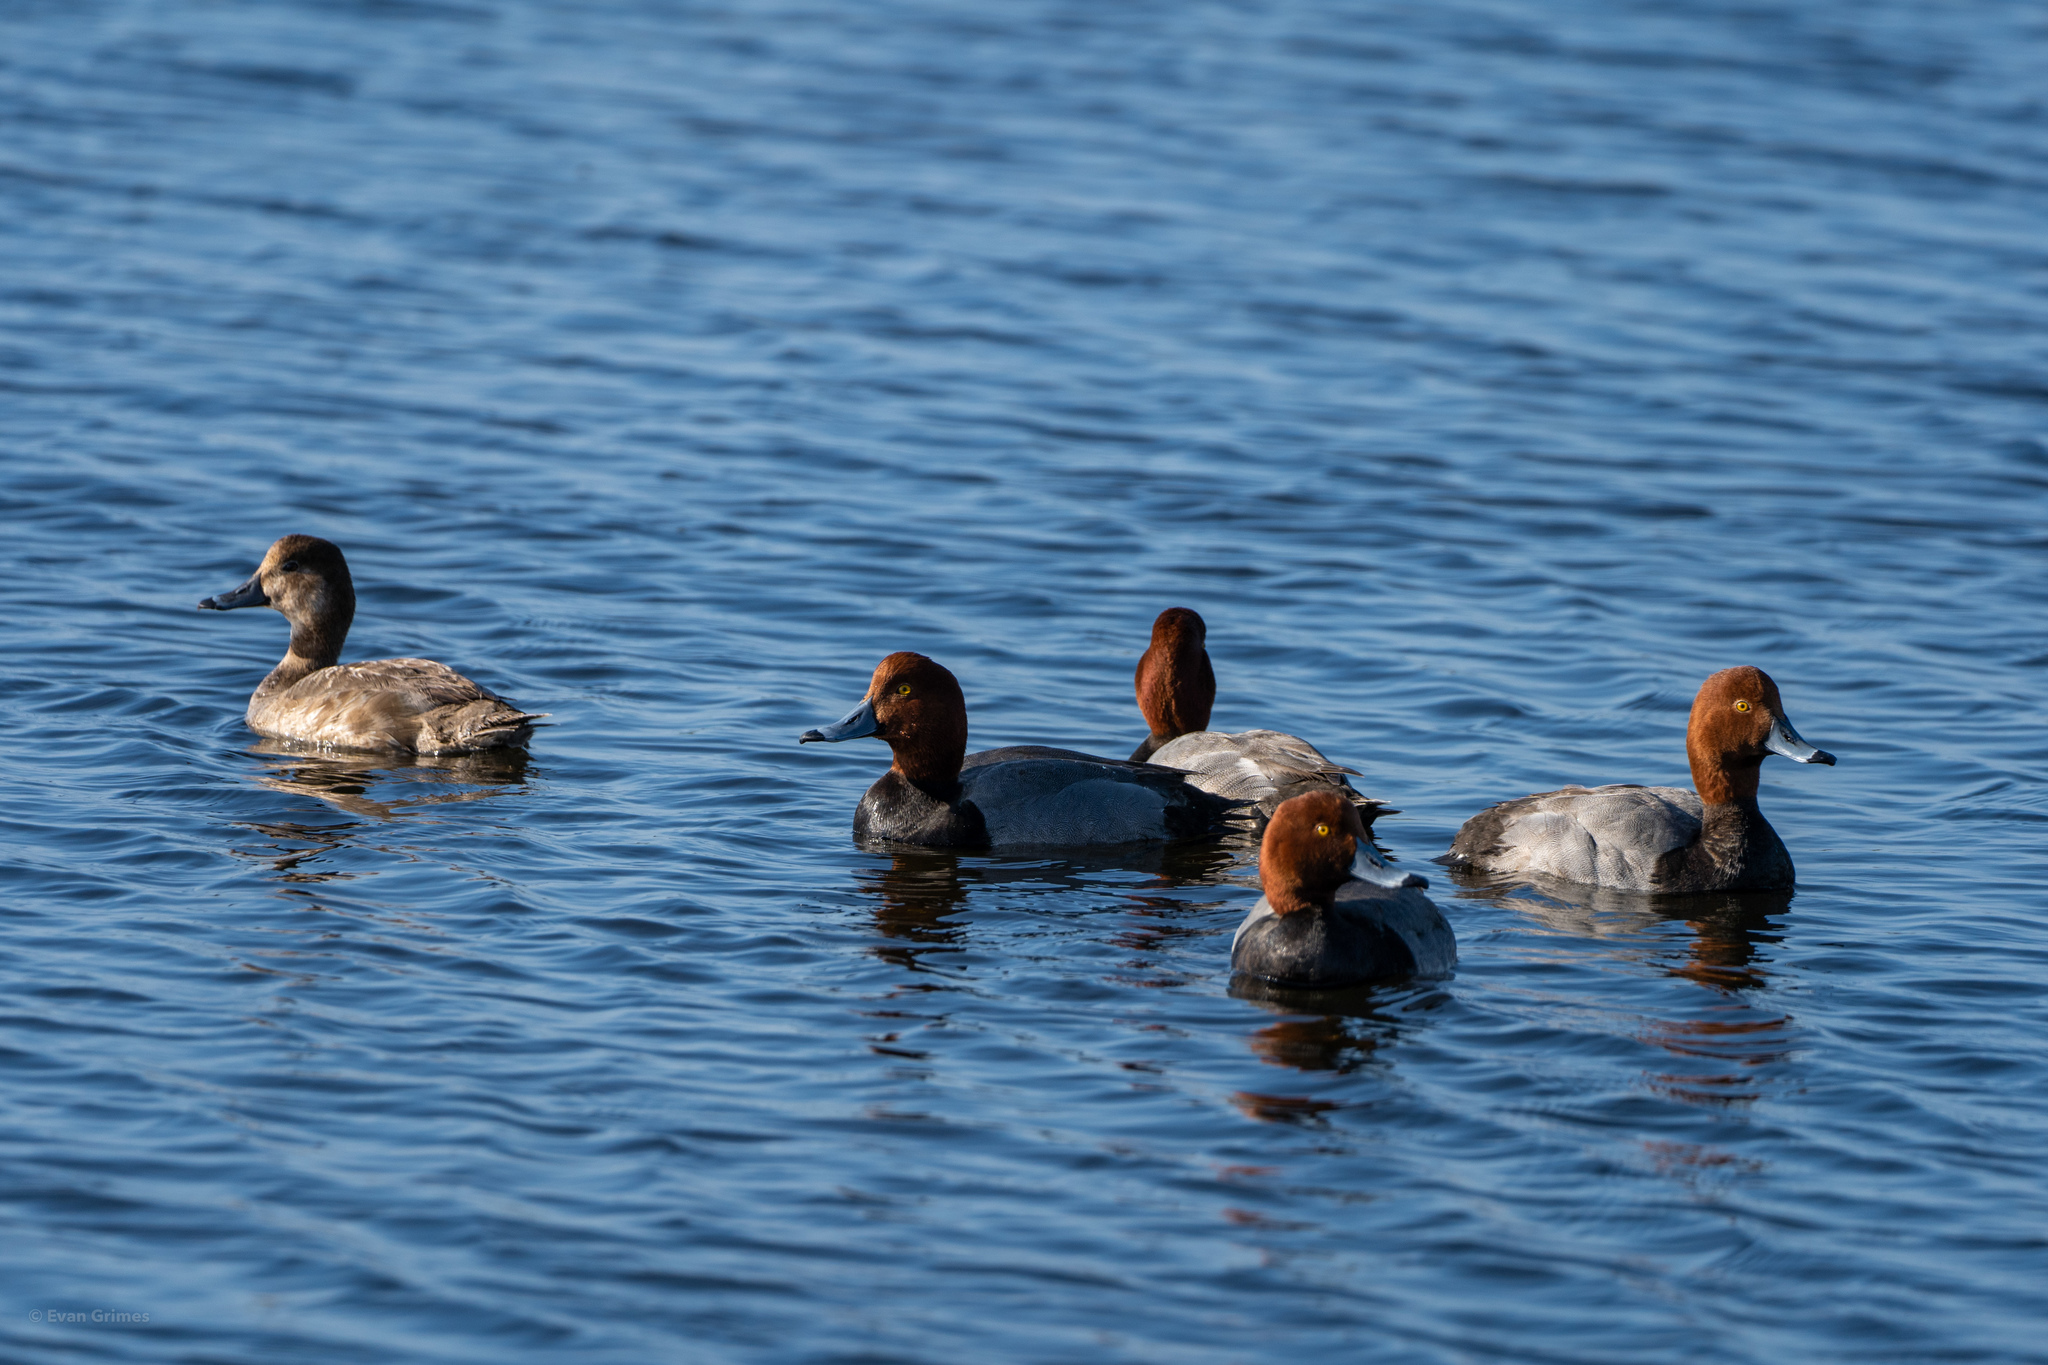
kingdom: Animalia
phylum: Chordata
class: Aves
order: Anseriformes
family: Anatidae
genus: Aythya
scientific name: Aythya americana
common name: Redhead
